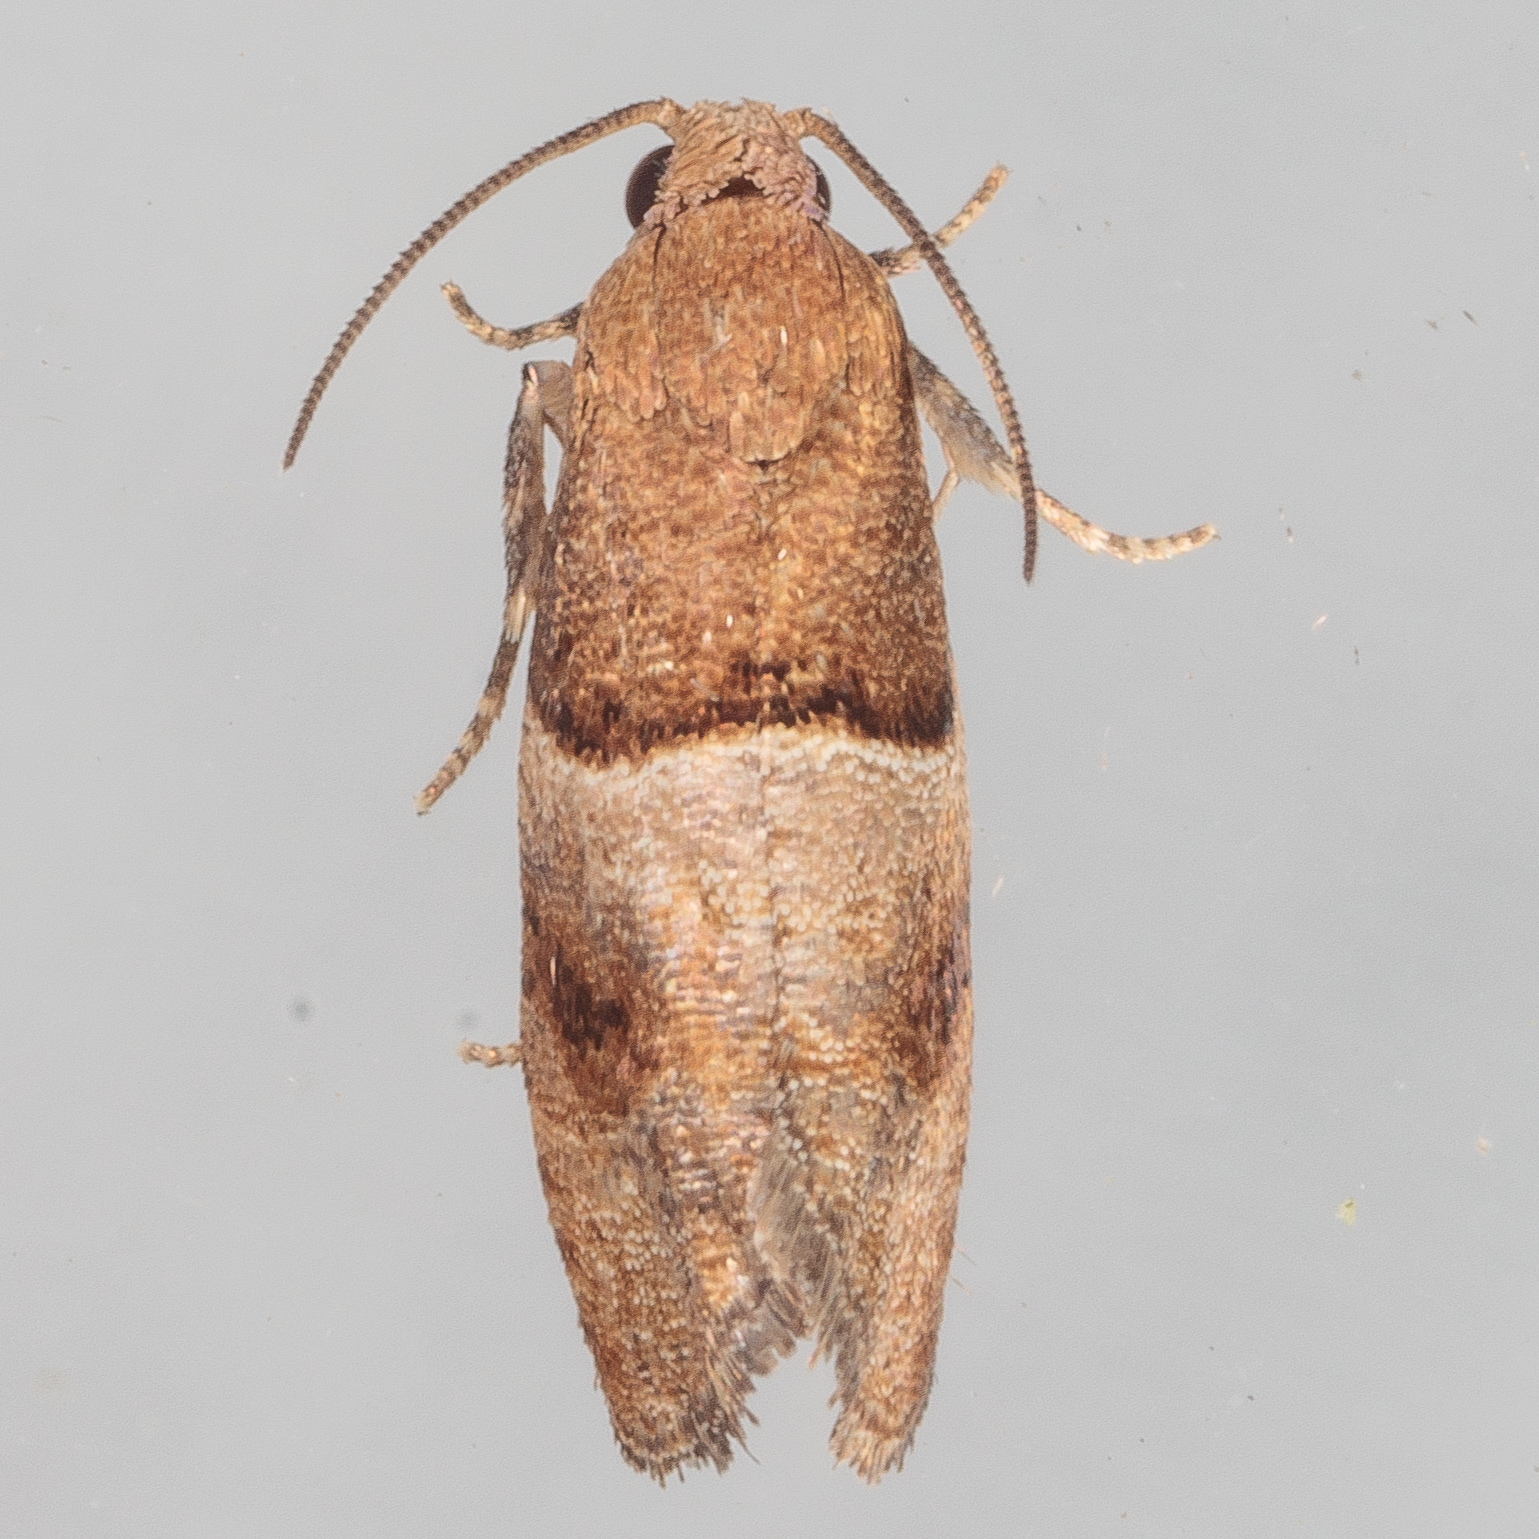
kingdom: Animalia
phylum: Arthropoda
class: Insecta
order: Lepidoptera
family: Tortricidae
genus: Larisa
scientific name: Larisa subsolana
